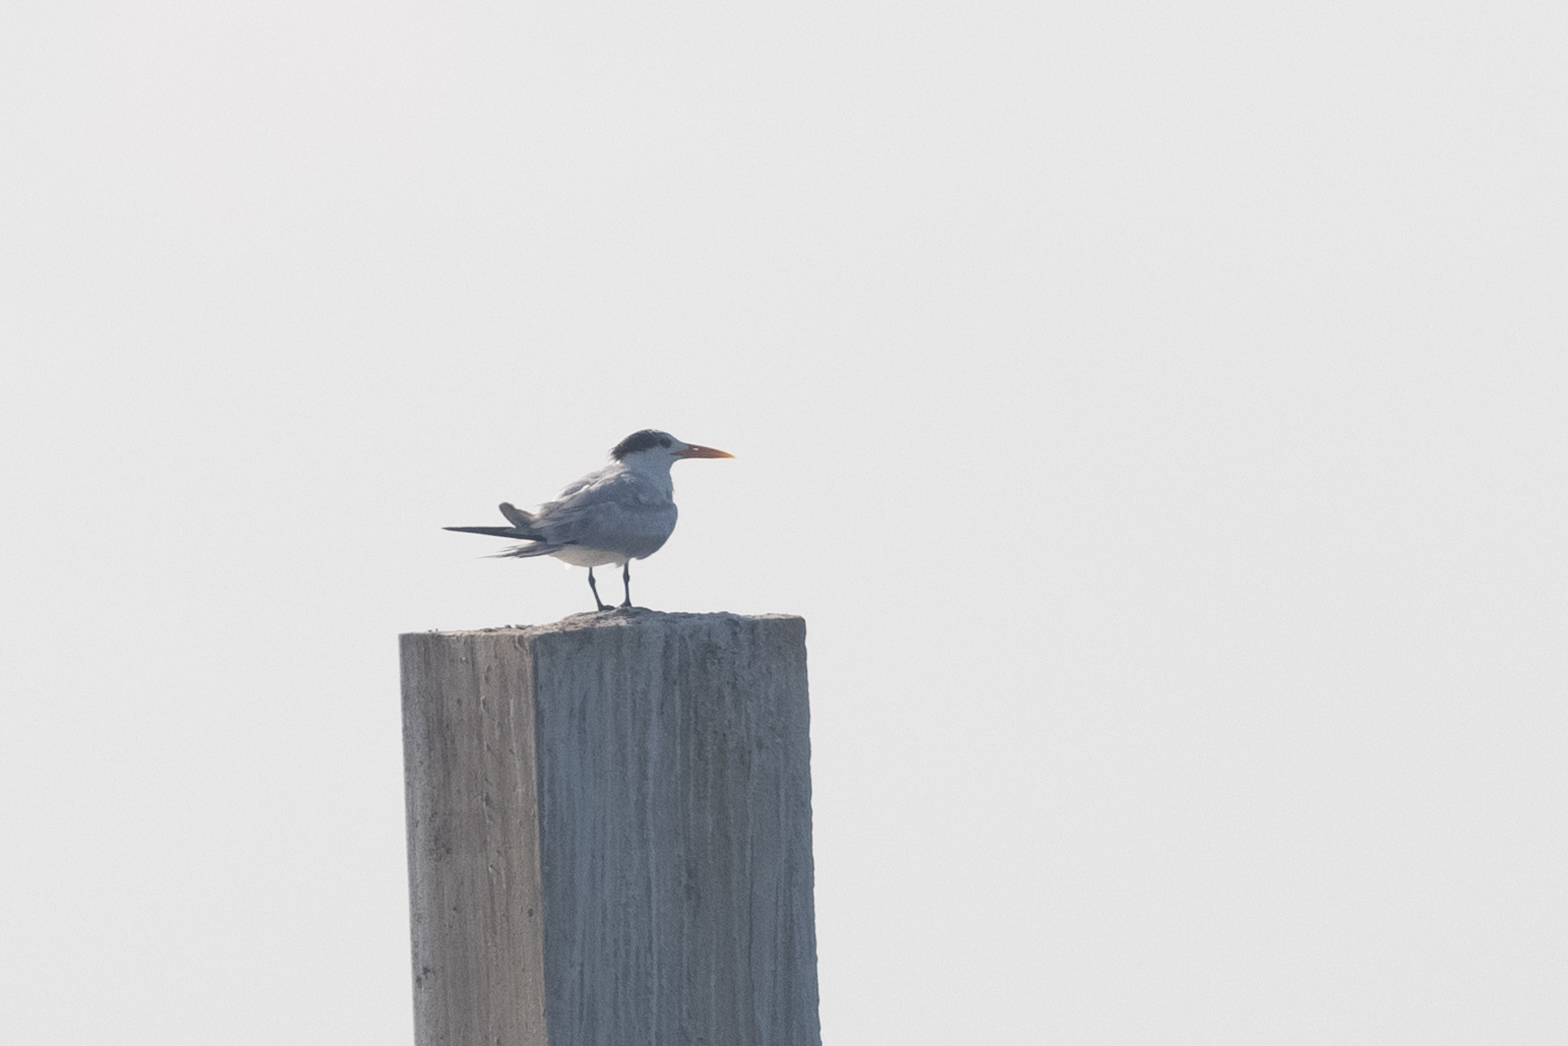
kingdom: Animalia
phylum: Chordata
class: Aves
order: Charadriiformes
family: Laridae
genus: Thalasseus
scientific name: Thalasseus maximus
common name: Royal tern
